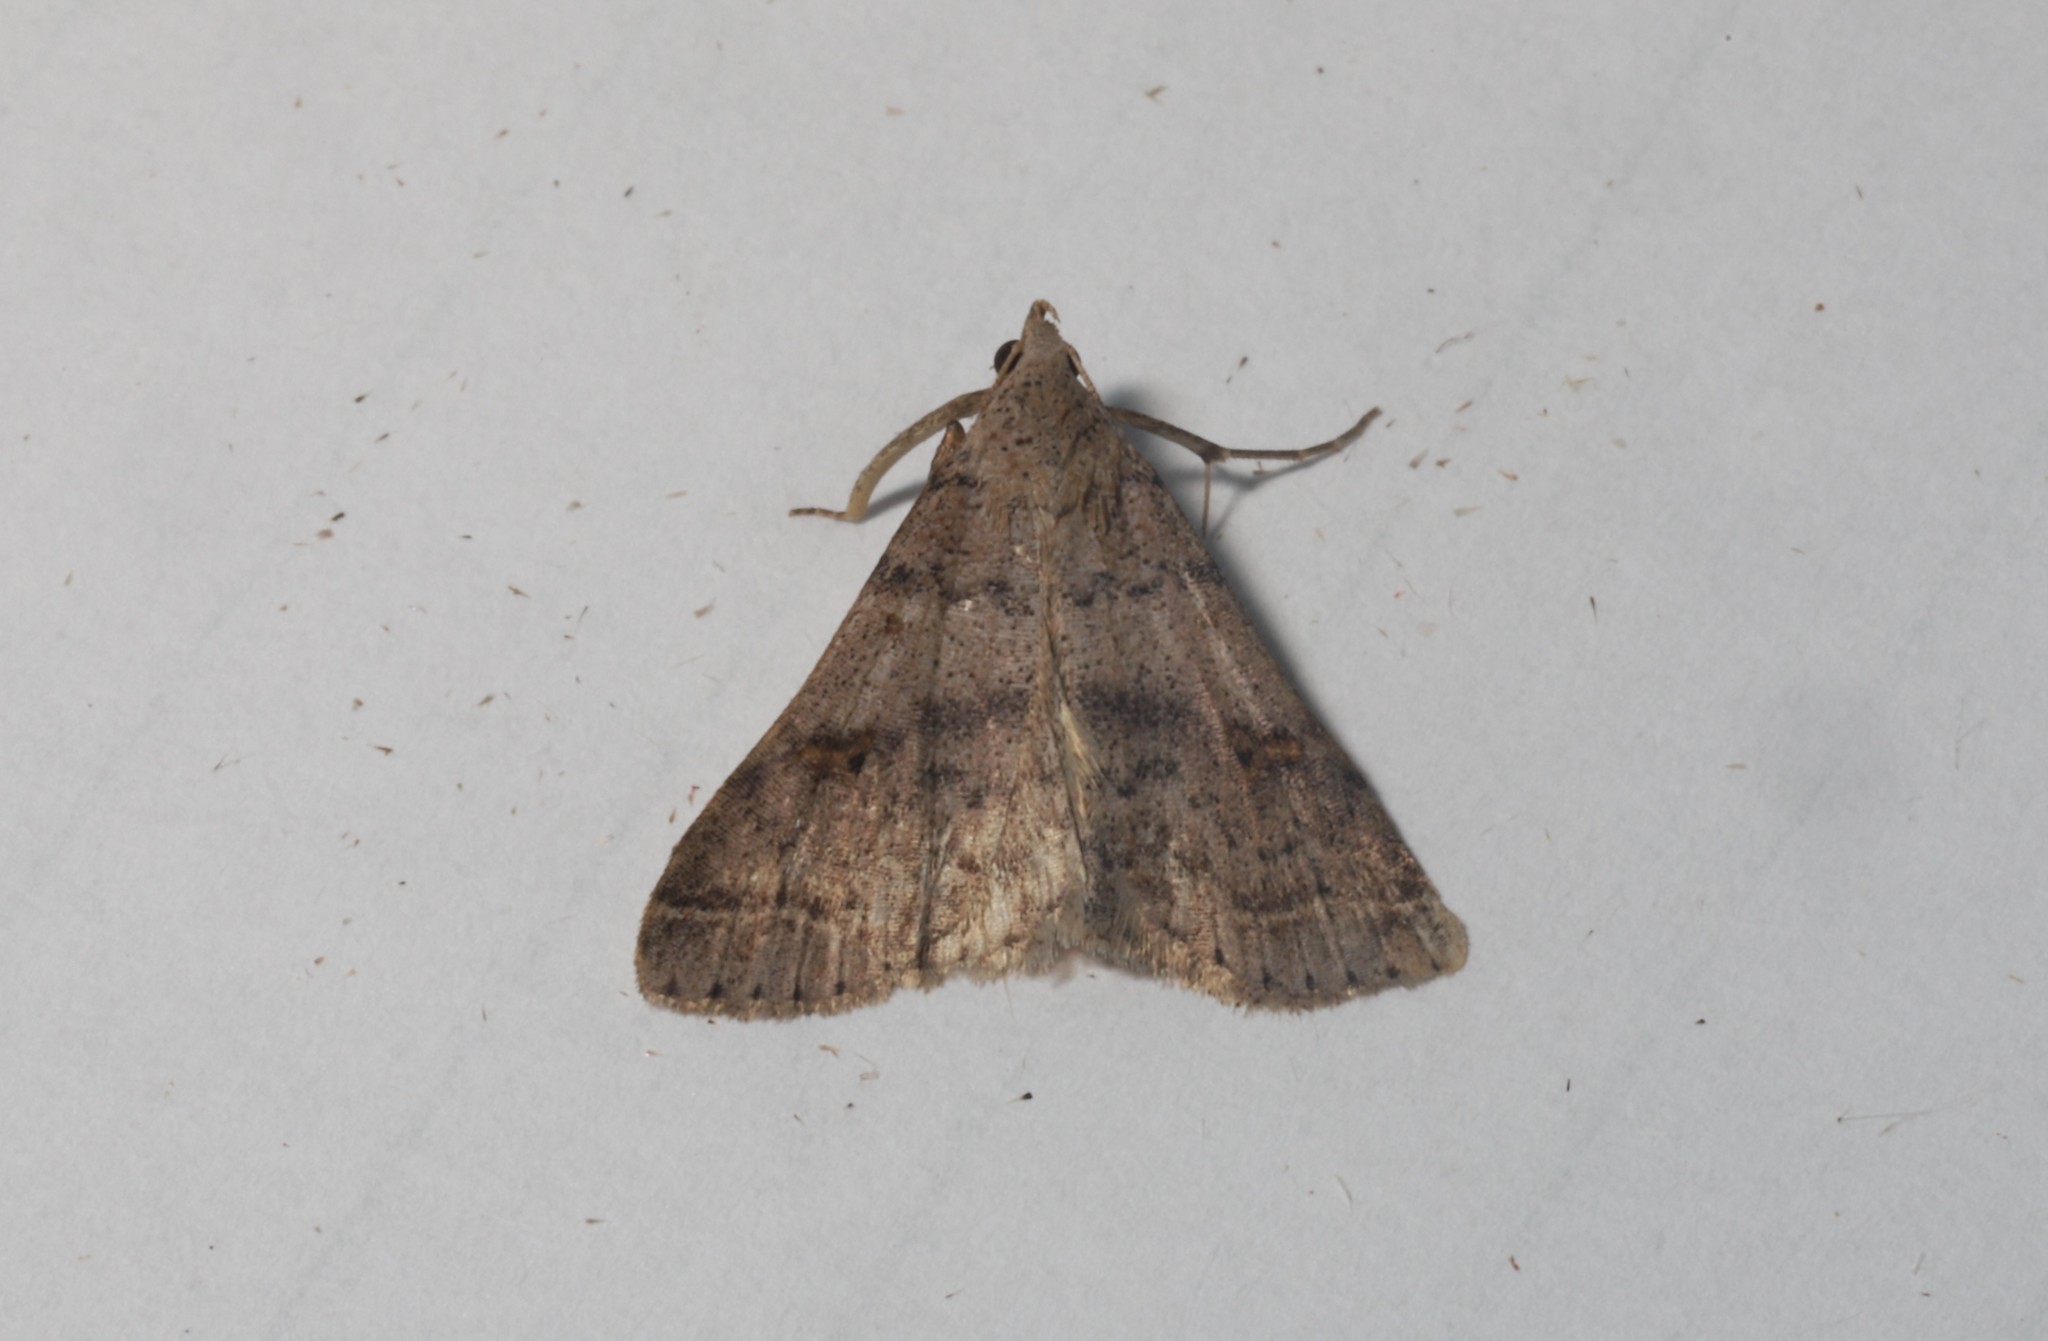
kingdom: Animalia
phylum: Arthropoda
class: Insecta
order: Lepidoptera
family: Erebidae
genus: Bleptina
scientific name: Bleptina caradrinalis
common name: Bent-winged owlet
